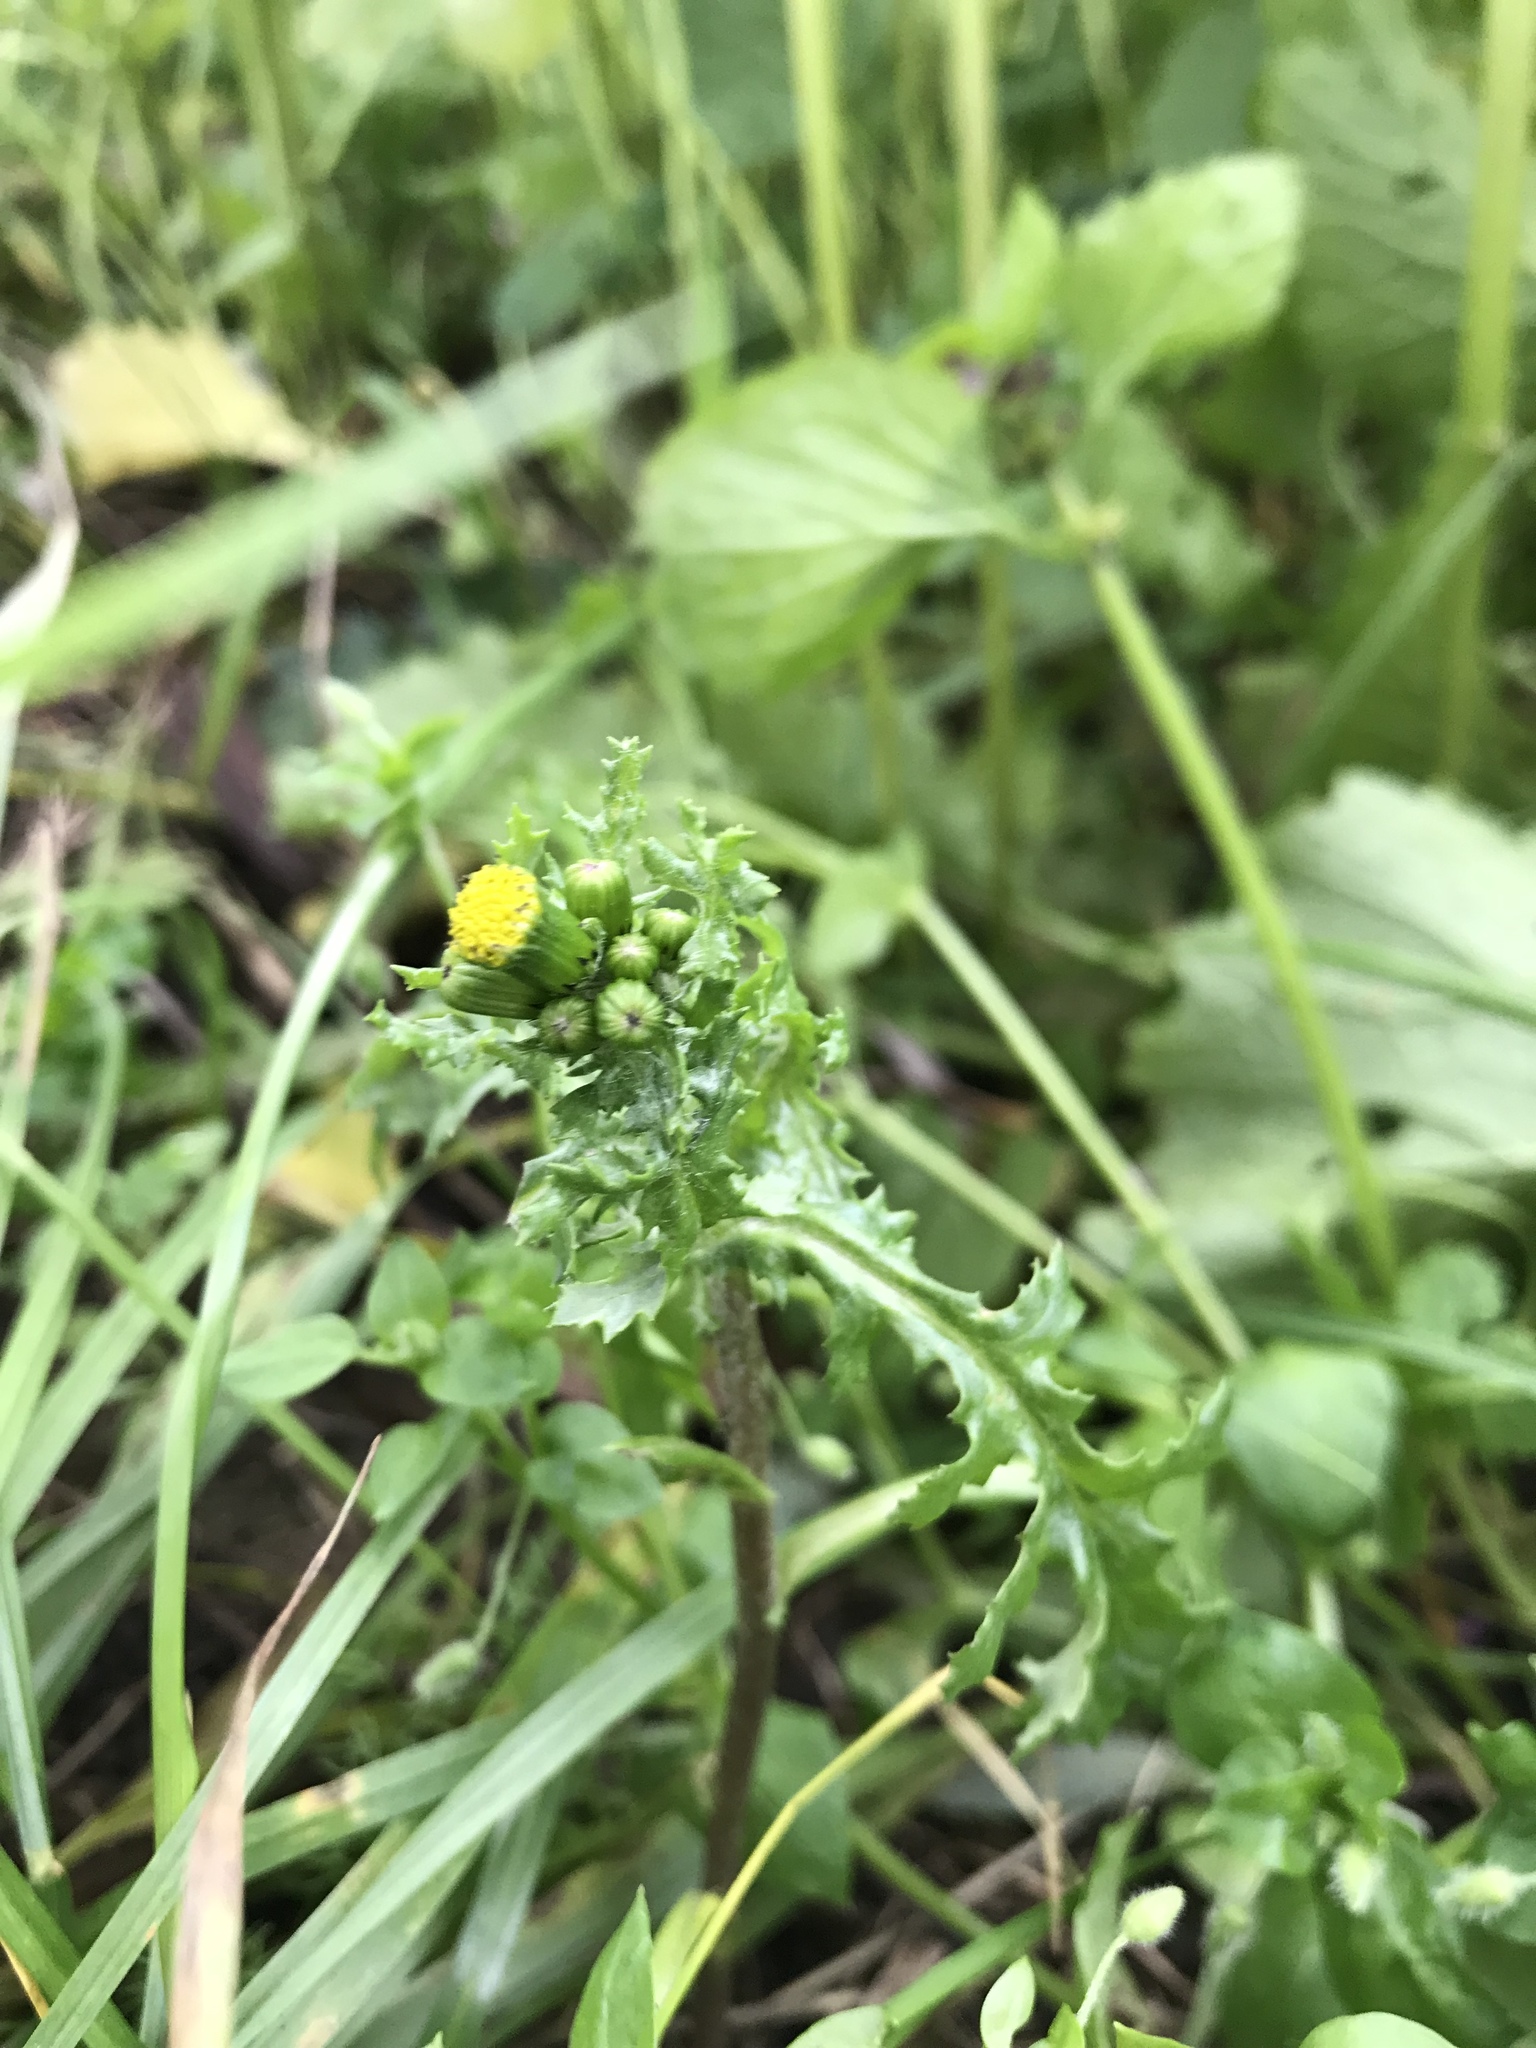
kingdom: Plantae
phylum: Tracheophyta
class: Magnoliopsida
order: Asterales
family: Asteraceae
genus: Senecio
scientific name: Senecio vulgaris
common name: Old-man-in-the-spring
